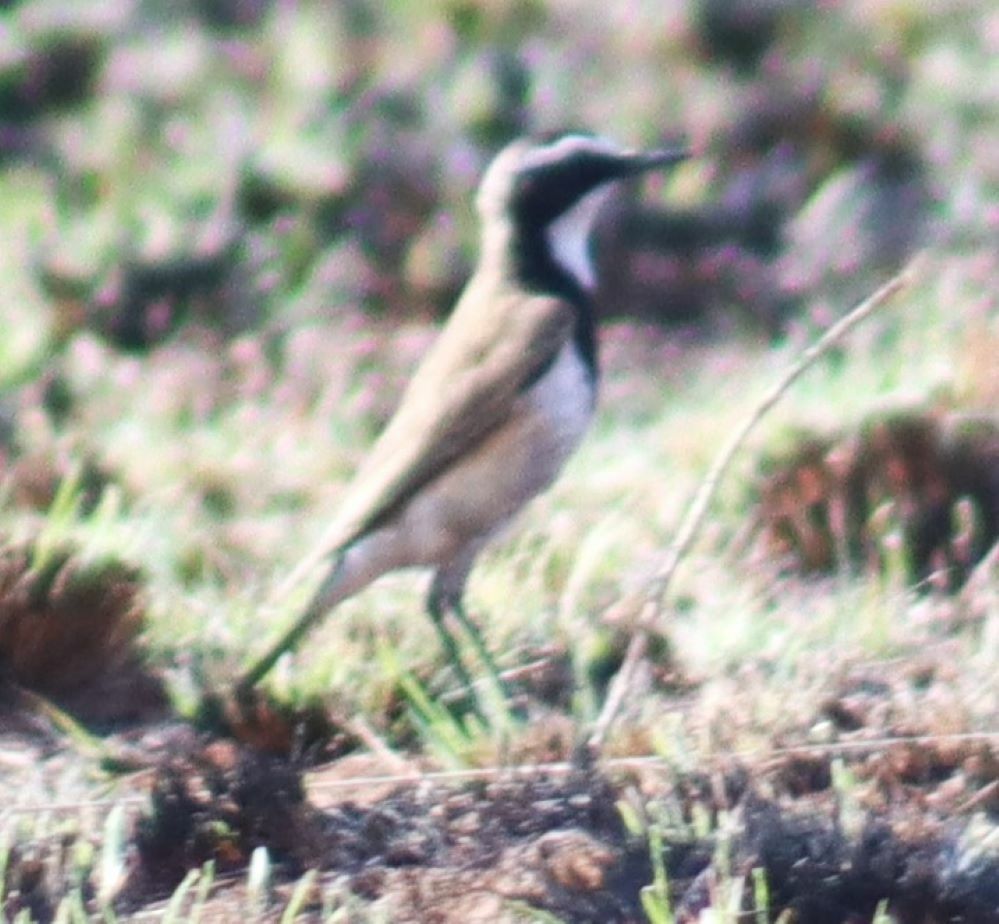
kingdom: Animalia
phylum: Chordata
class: Aves
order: Passeriformes
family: Muscicapidae
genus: Oenanthe
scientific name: Oenanthe pileata
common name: Capped wheatear
